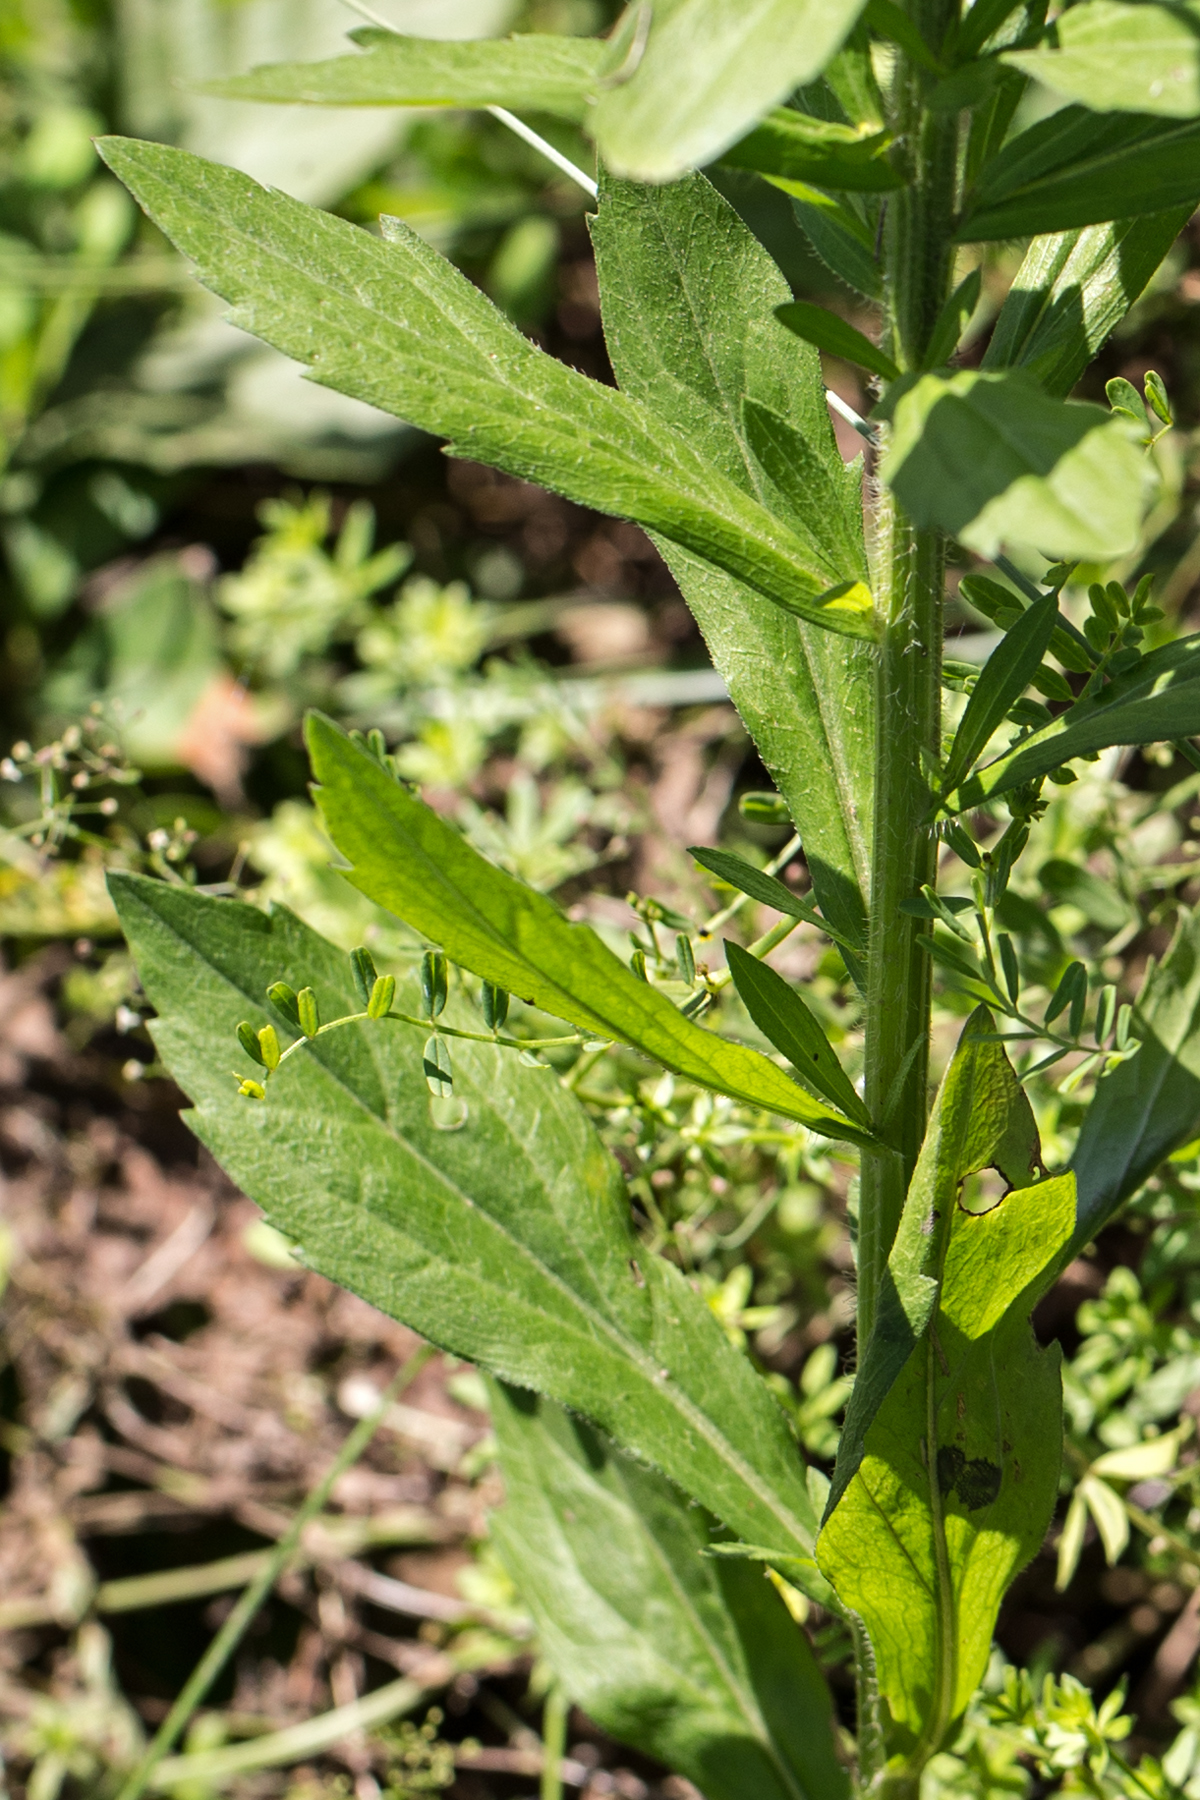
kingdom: Plantae
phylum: Tracheophyta
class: Magnoliopsida
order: Asterales
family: Asteraceae
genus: Erigeron
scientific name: Erigeron annuus
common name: Tall fleabane
